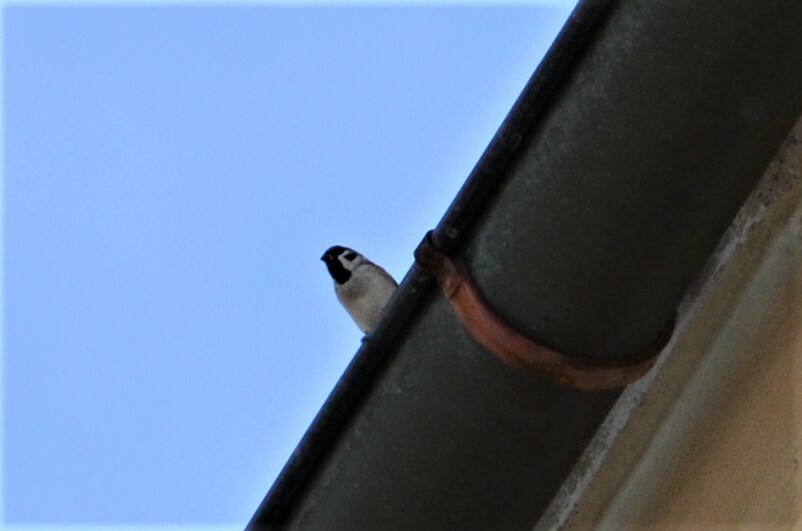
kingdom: Animalia
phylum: Chordata
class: Aves
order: Passeriformes
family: Passeridae
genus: Passer
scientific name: Passer montanus
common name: Eurasian tree sparrow
